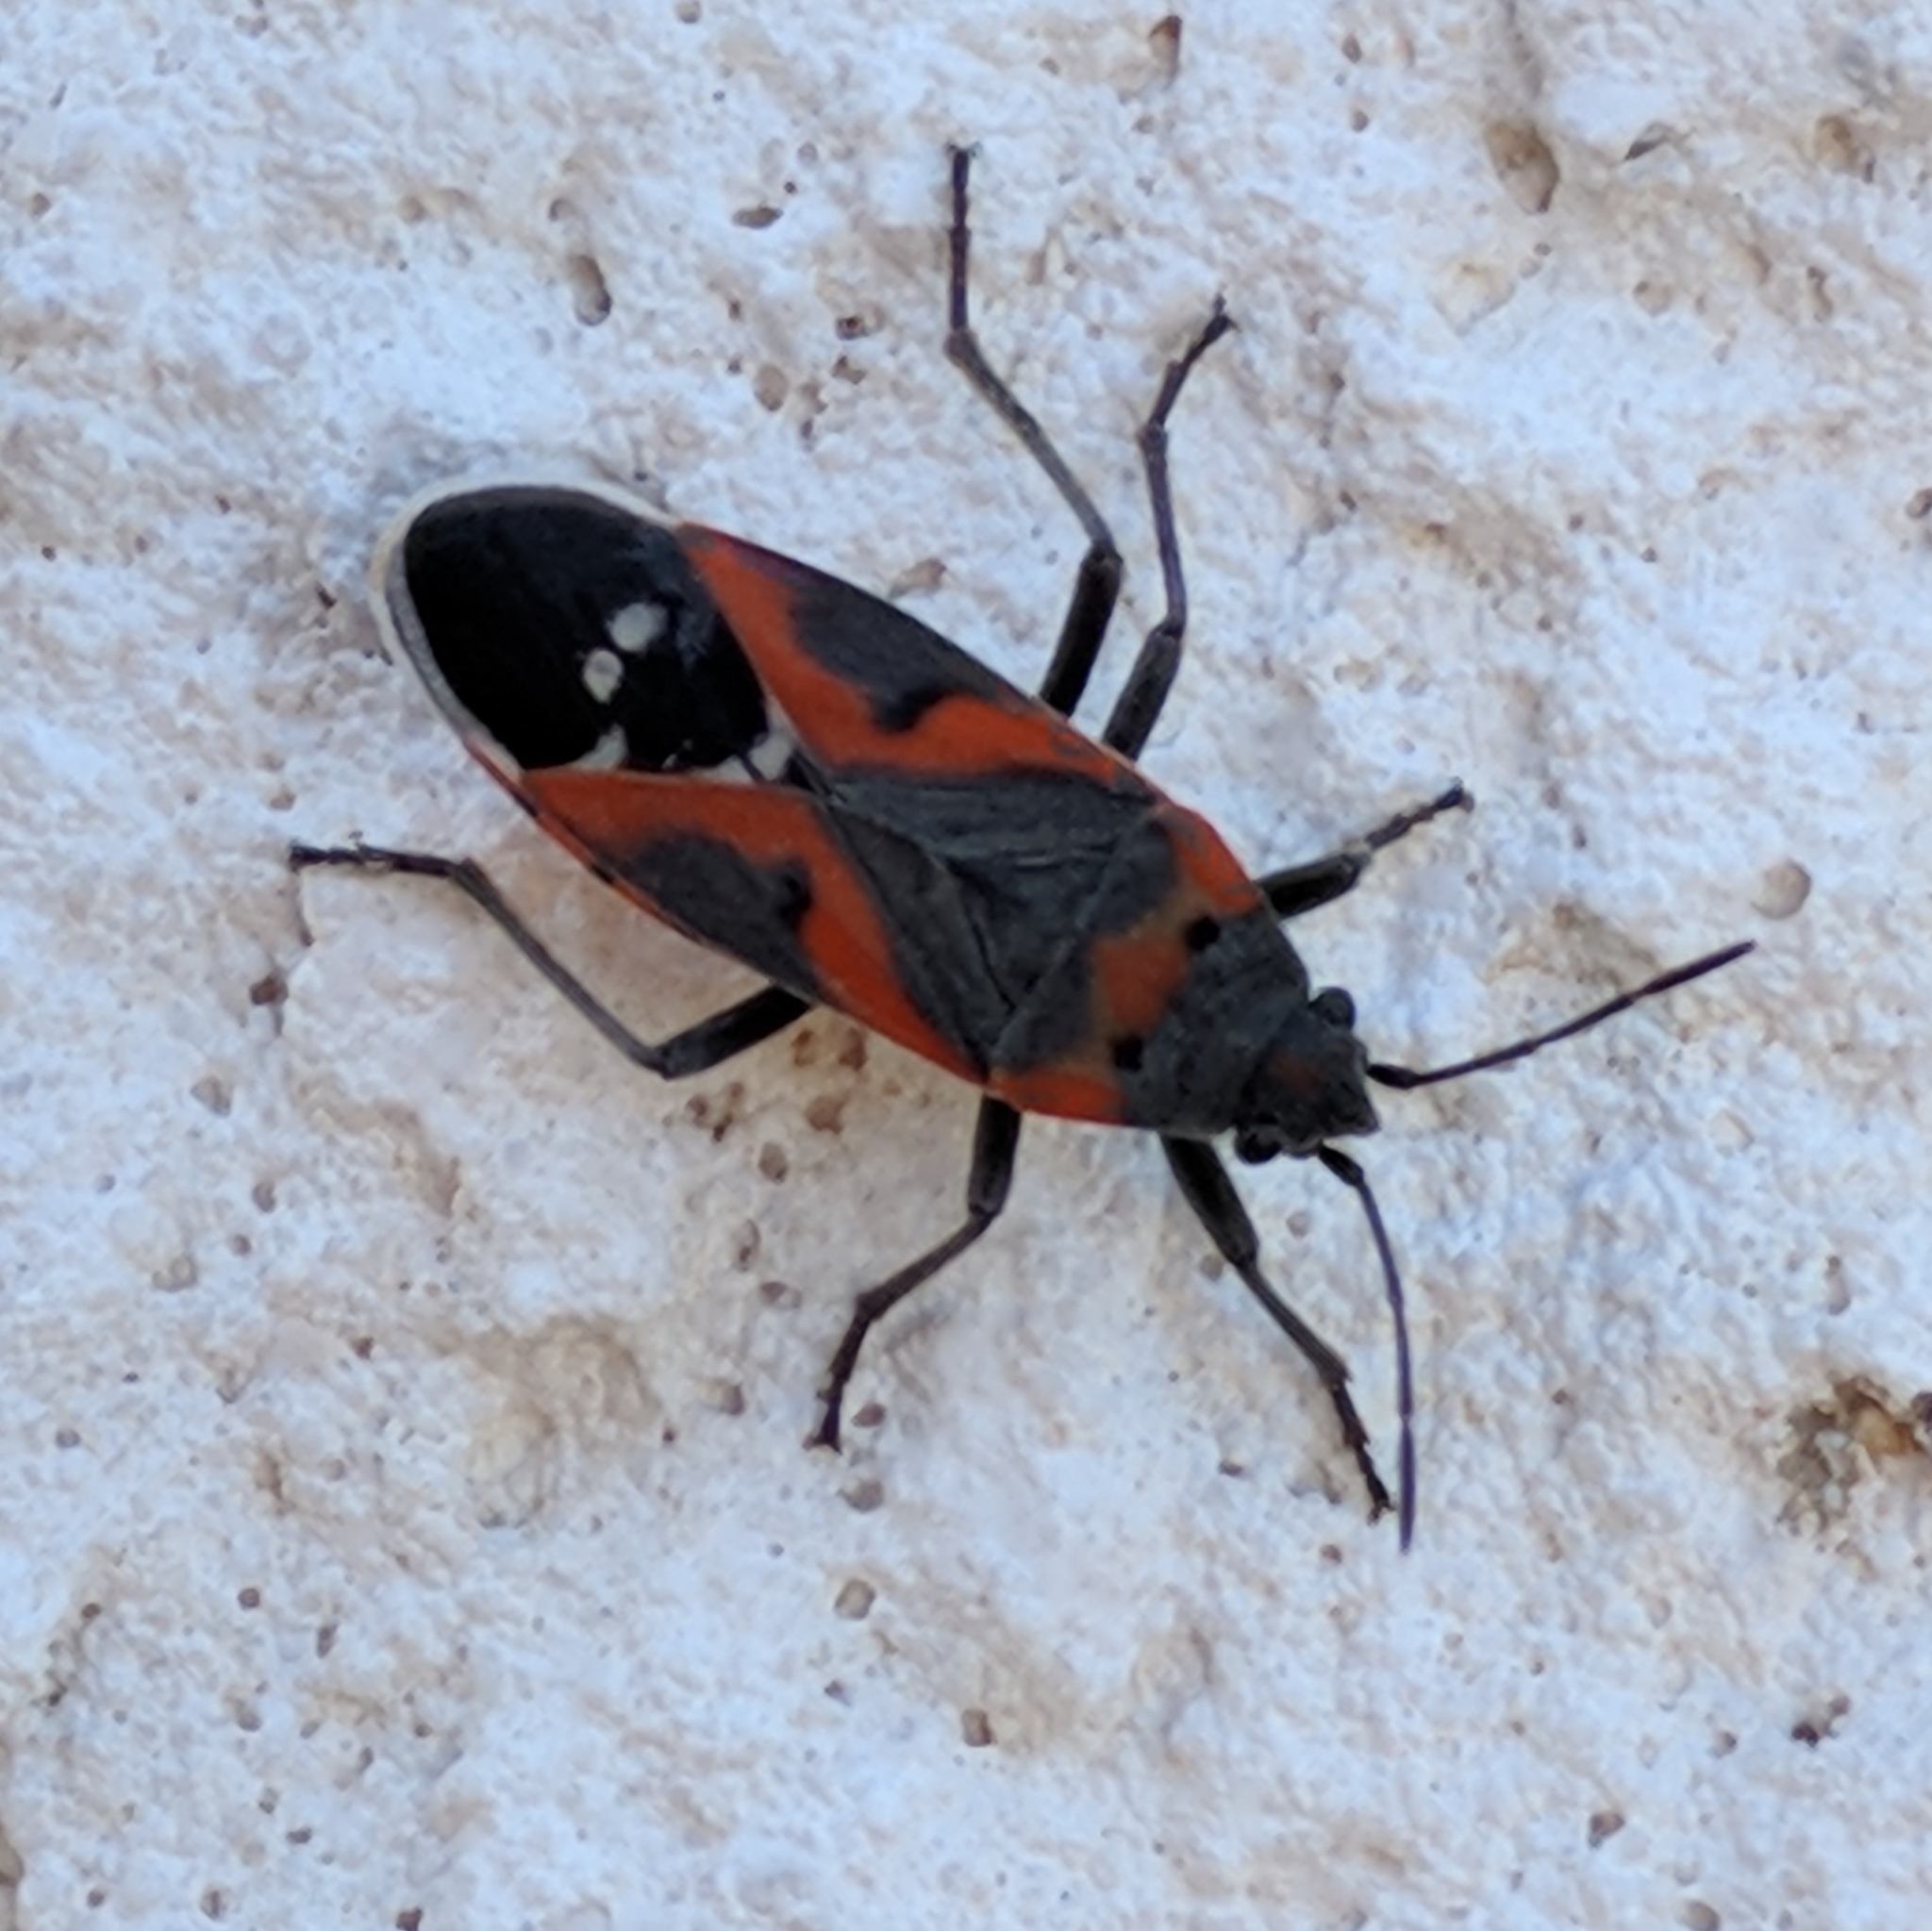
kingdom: Animalia
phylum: Arthropoda
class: Insecta
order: Hemiptera
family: Lygaeidae
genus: Lygaeus
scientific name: Lygaeus kalmii
